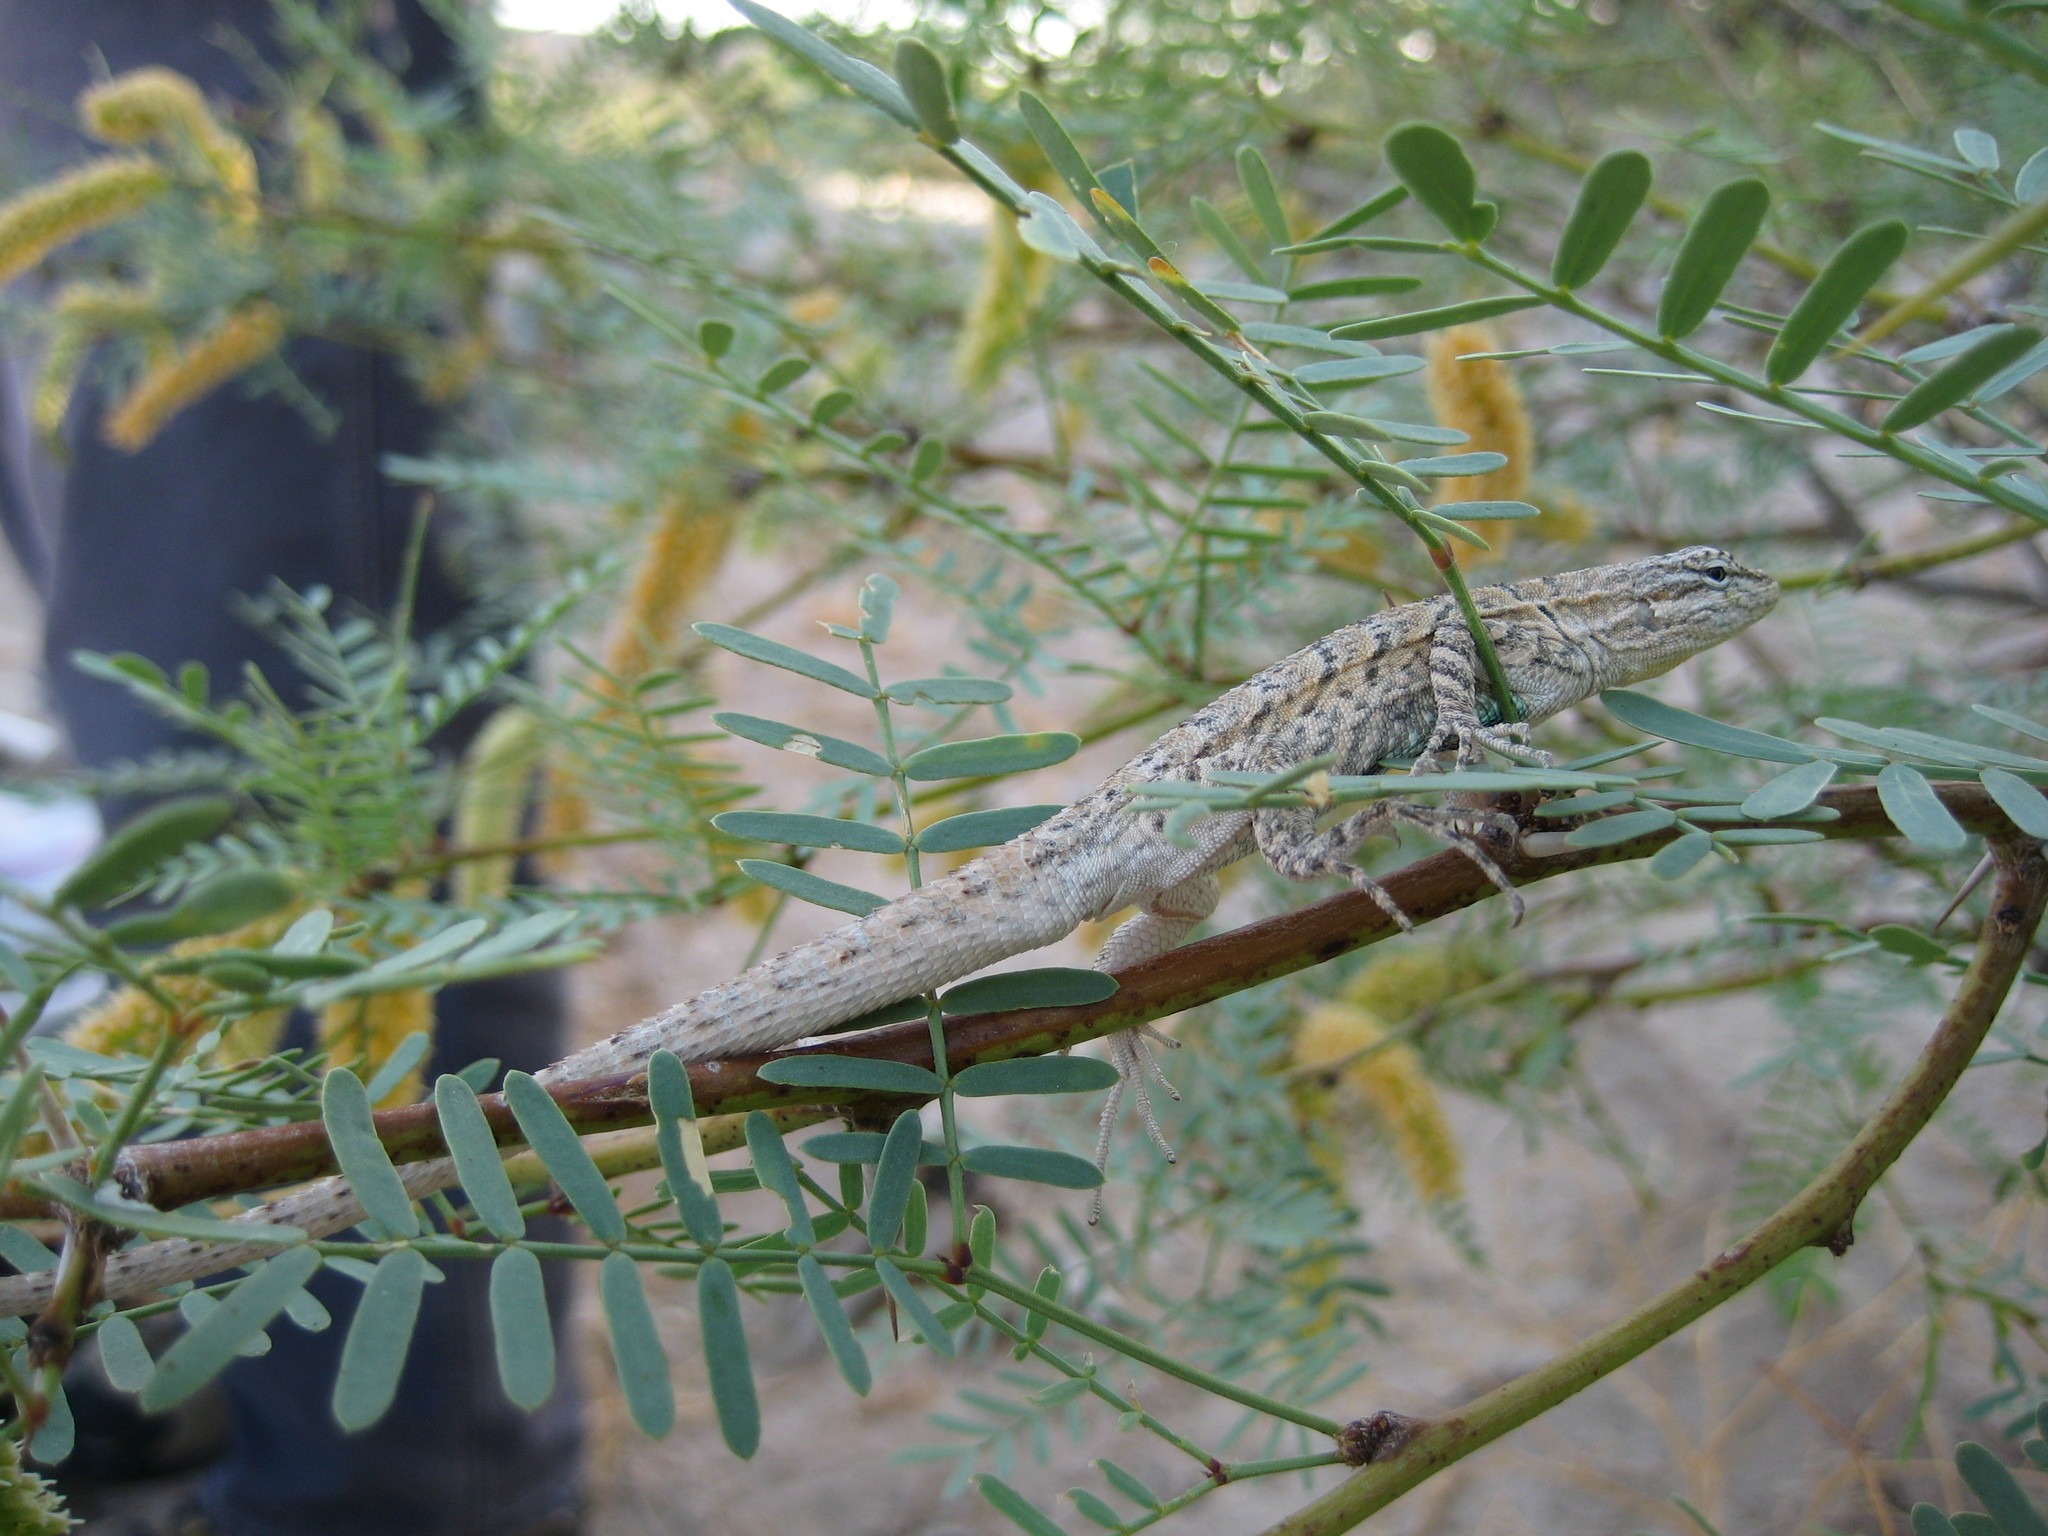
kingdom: Animalia
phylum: Chordata
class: Squamata
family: Phrynosomatidae
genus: Urosaurus
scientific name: Urosaurus graciosus
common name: Long-tailed brush lizard
